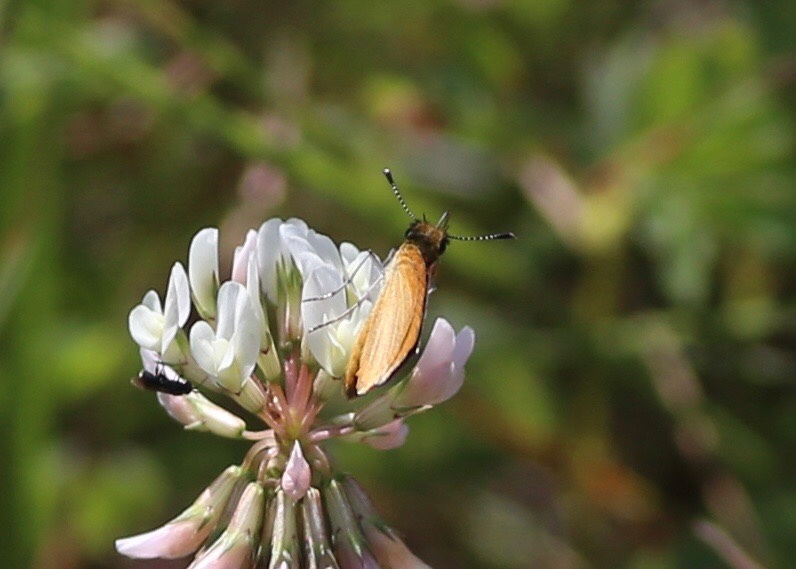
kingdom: Animalia
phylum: Arthropoda
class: Insecta
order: Lepidoptera
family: Hesperiidae
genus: Ancyloxypha
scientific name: Ancyloxypha numitor
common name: Least skipper
